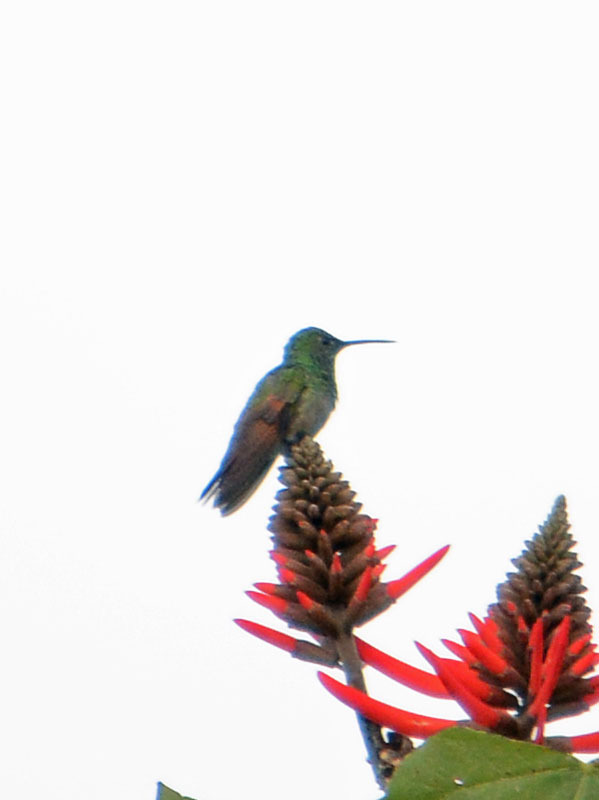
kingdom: Animalia
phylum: Chordata
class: Aves
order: Apodiformes
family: Trochilidae
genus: Saucerottia
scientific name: Saucerottia beryllina
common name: Berylline hummingbird
